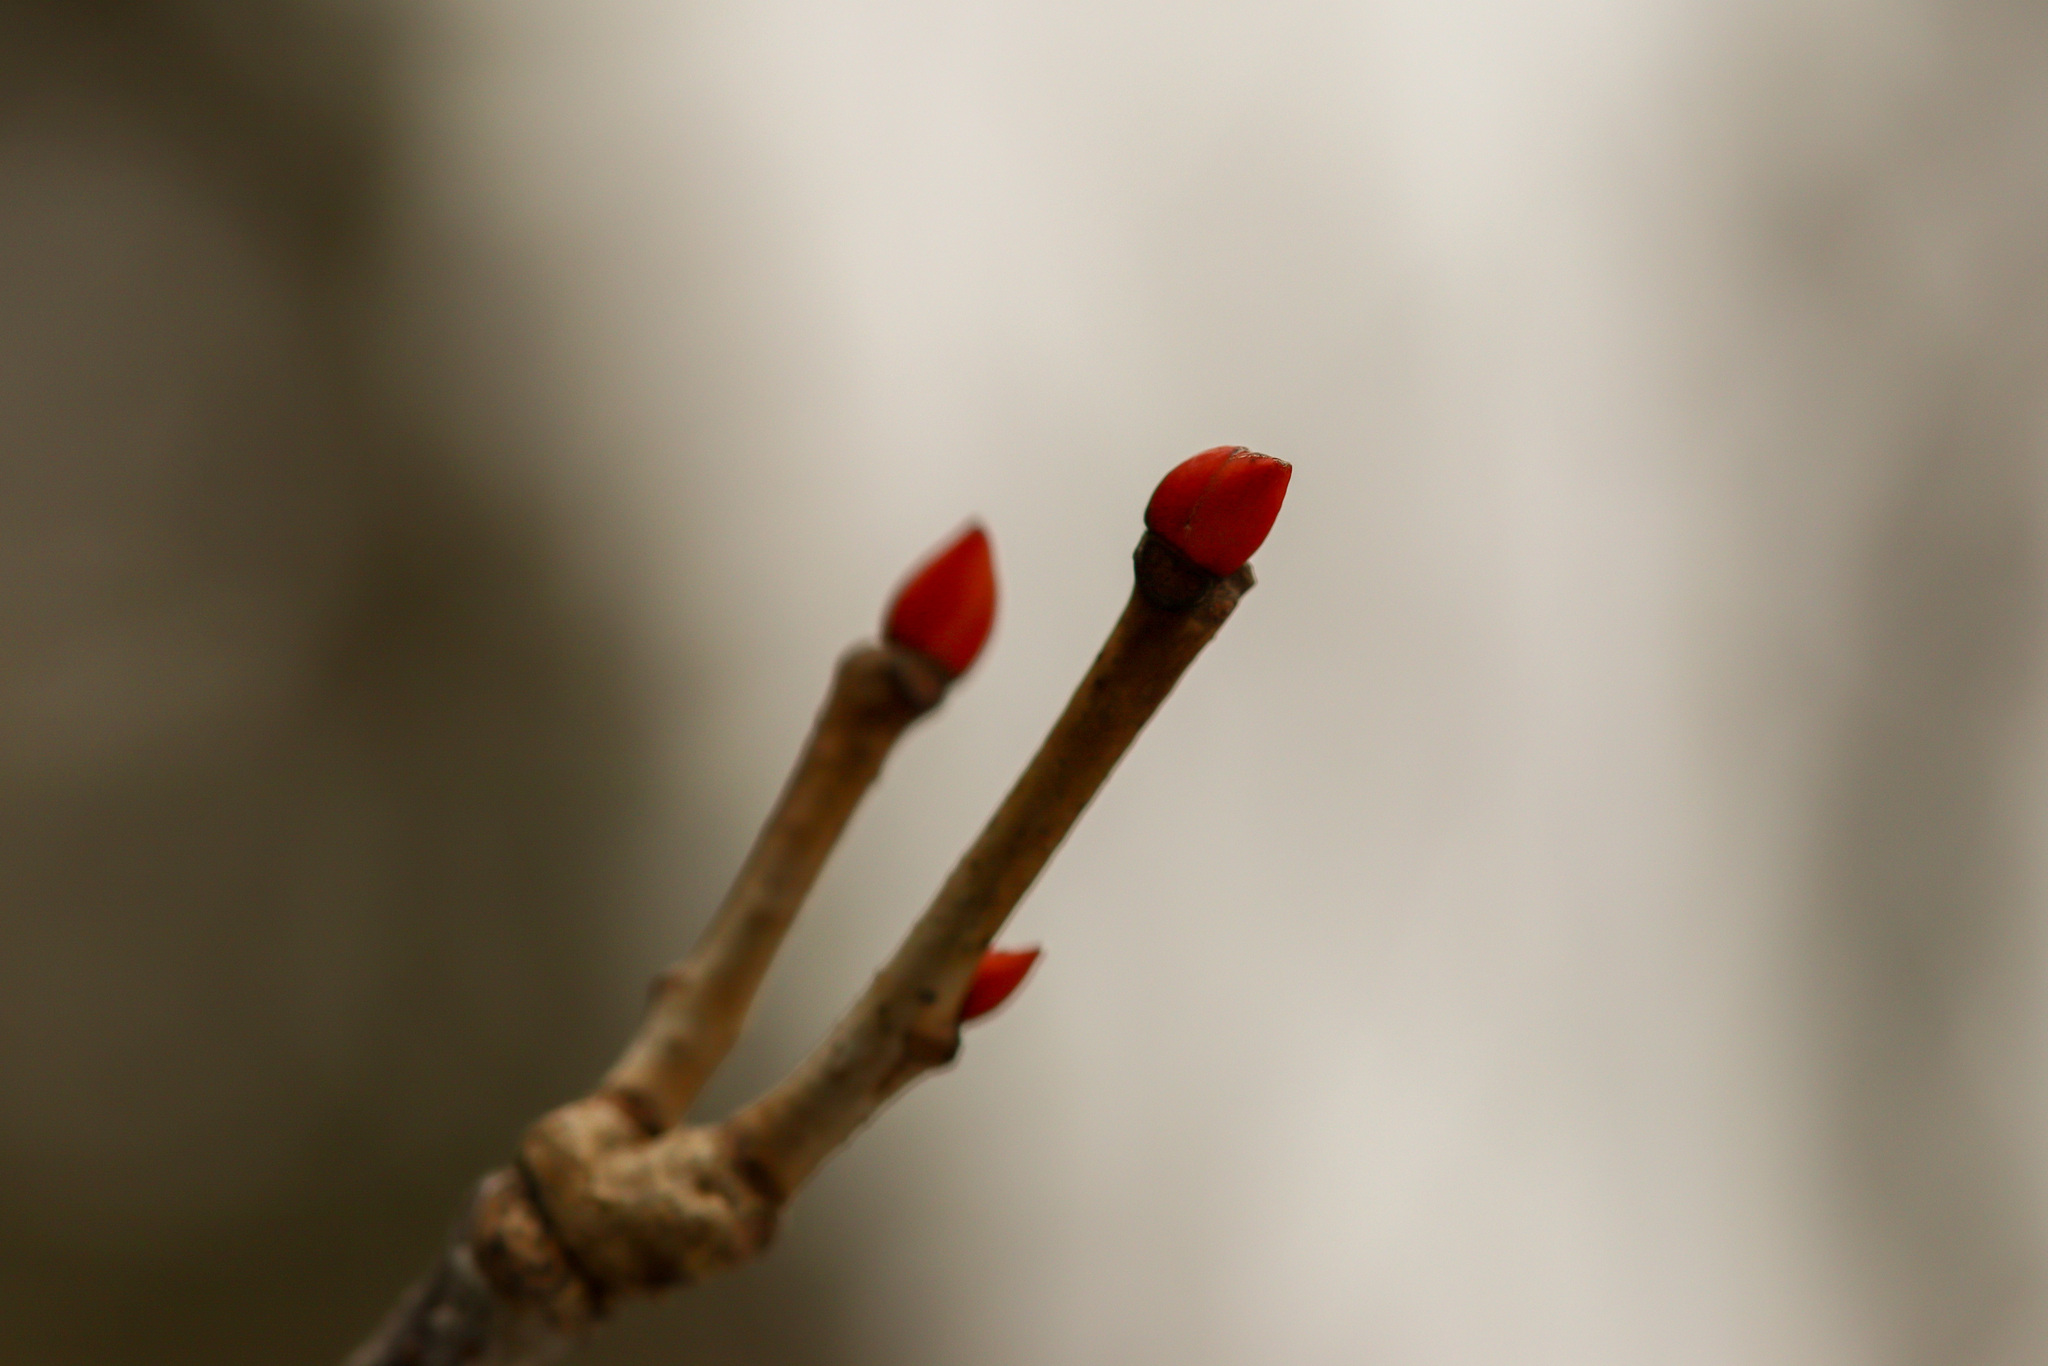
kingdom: Plantae
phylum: Tracheophyta
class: Magnoliopsida
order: Malvales
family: Malvaceae
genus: Tilia
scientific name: Tilia americana
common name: Basswood
